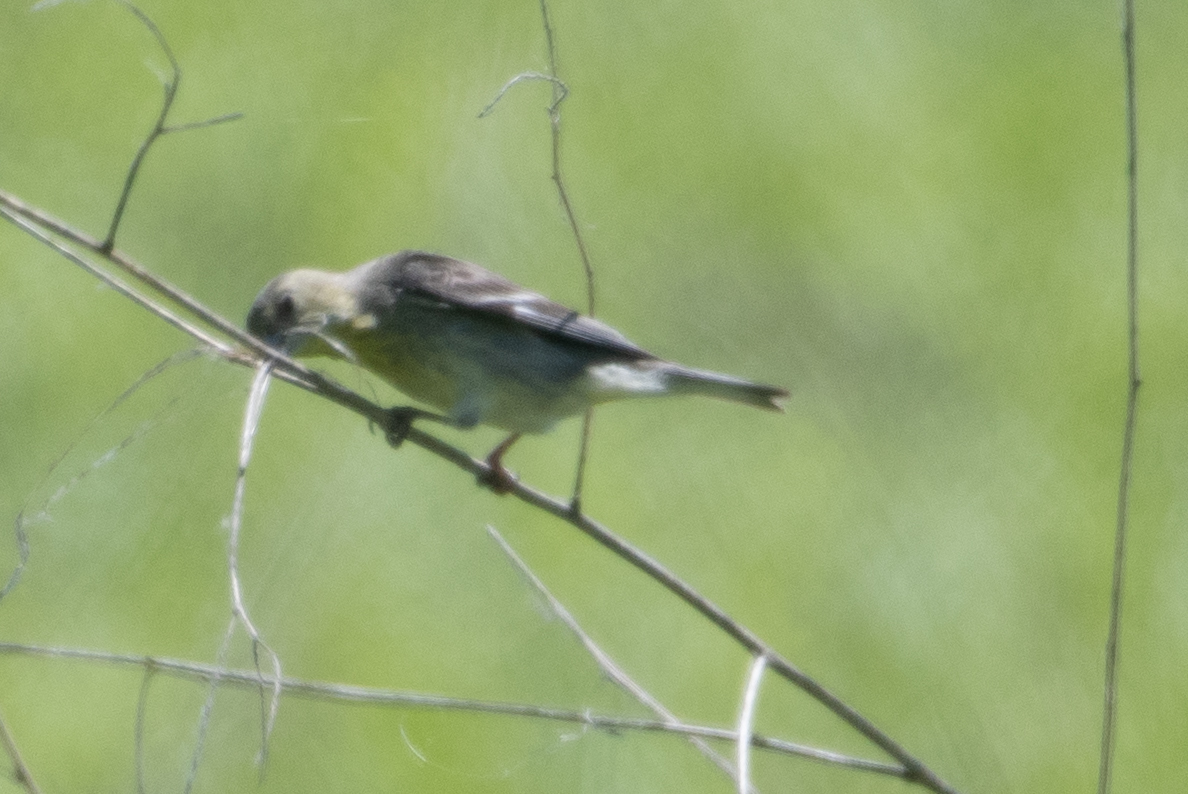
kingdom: Animalia
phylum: Chordata
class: Aves
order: Passeriformes
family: Fringillidae
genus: Spinus
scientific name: Spinus psaltria
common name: Lesser goldfinch
